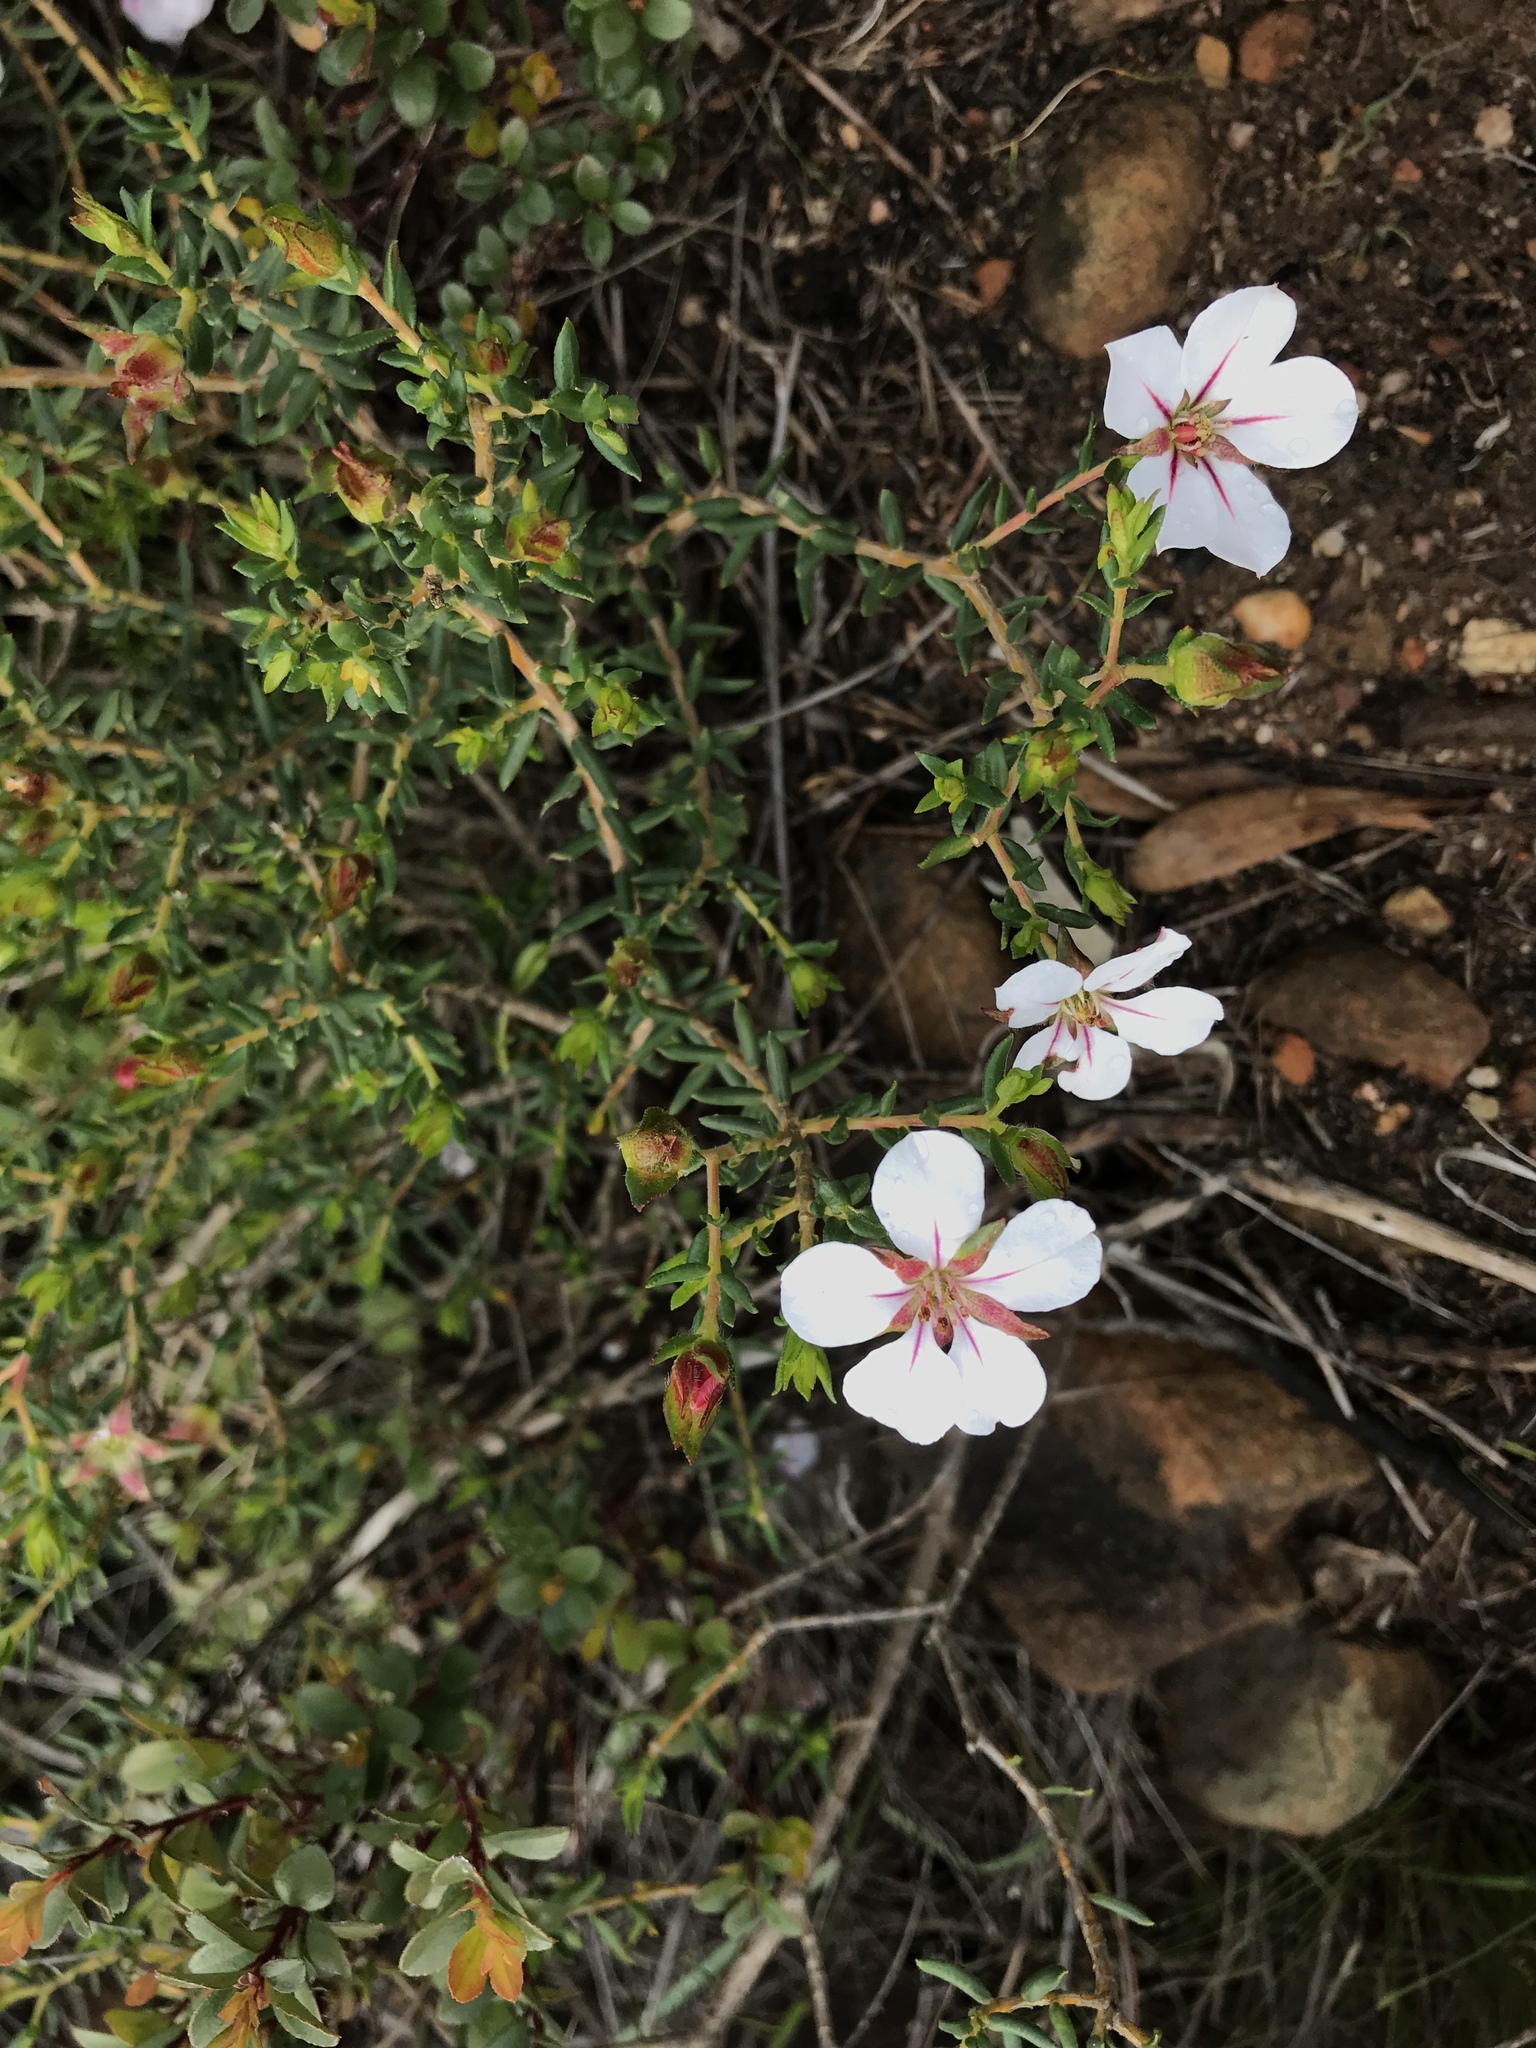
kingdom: Plantae
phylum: Tracheophyta
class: Magnoliopsida
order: Sapindales
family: Rutaceae
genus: Adenandra
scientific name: Adenandra uniflora
